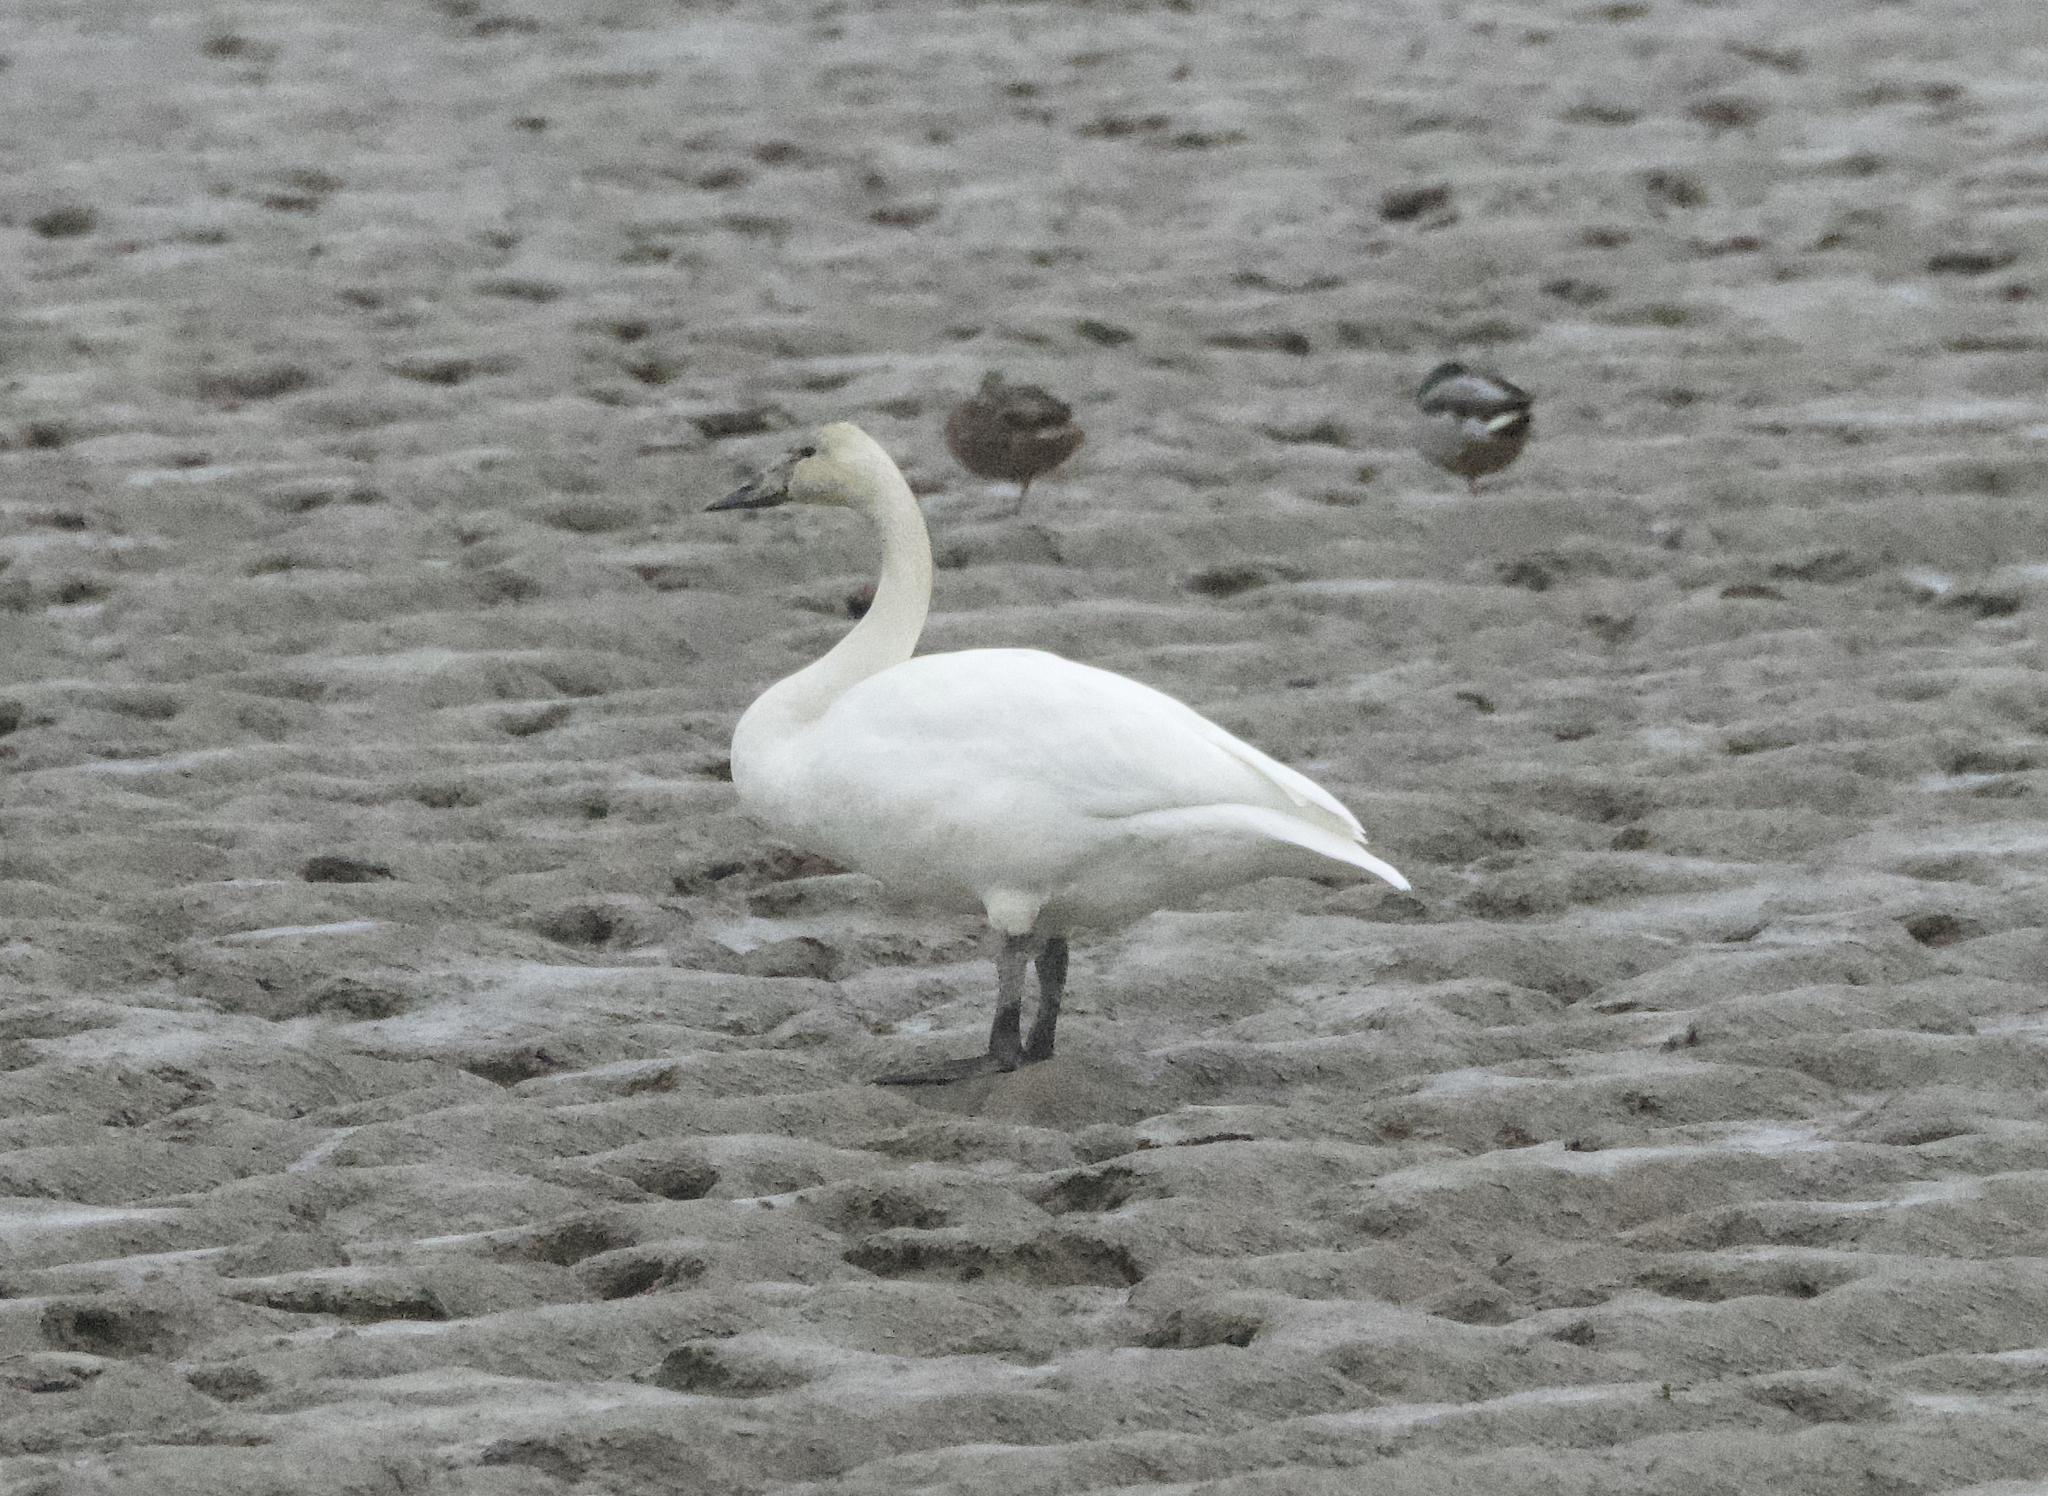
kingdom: Animalia
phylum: Chordata
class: Aves
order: Anseriformes
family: Anatidae
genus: Cygnus
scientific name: Cygnus buccinator
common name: Trumpeter swan
